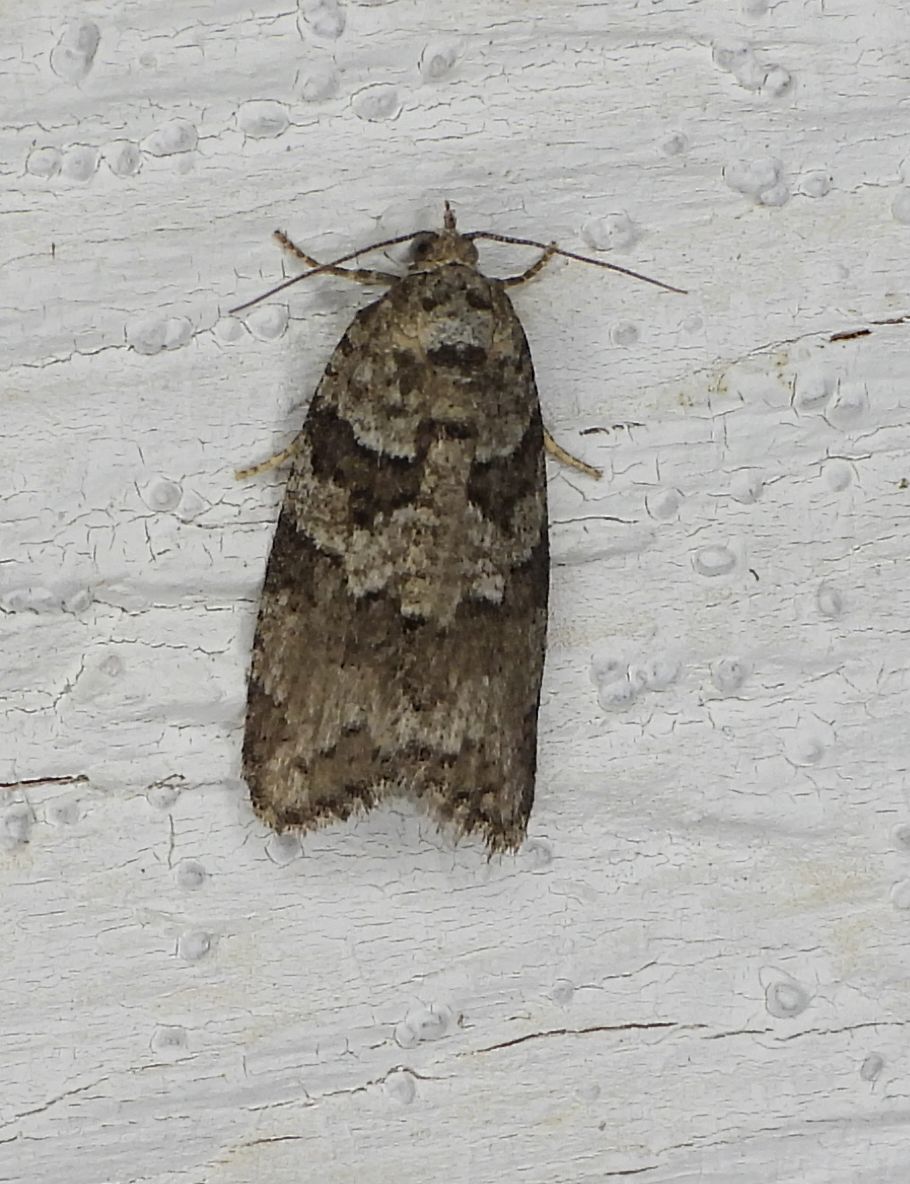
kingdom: Animalia
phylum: Arthropoda
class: Insecta
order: Lepidoptera
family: Tortricidae
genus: Cnephasia
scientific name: Cnephasia stephensiana
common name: Grey tortrix
